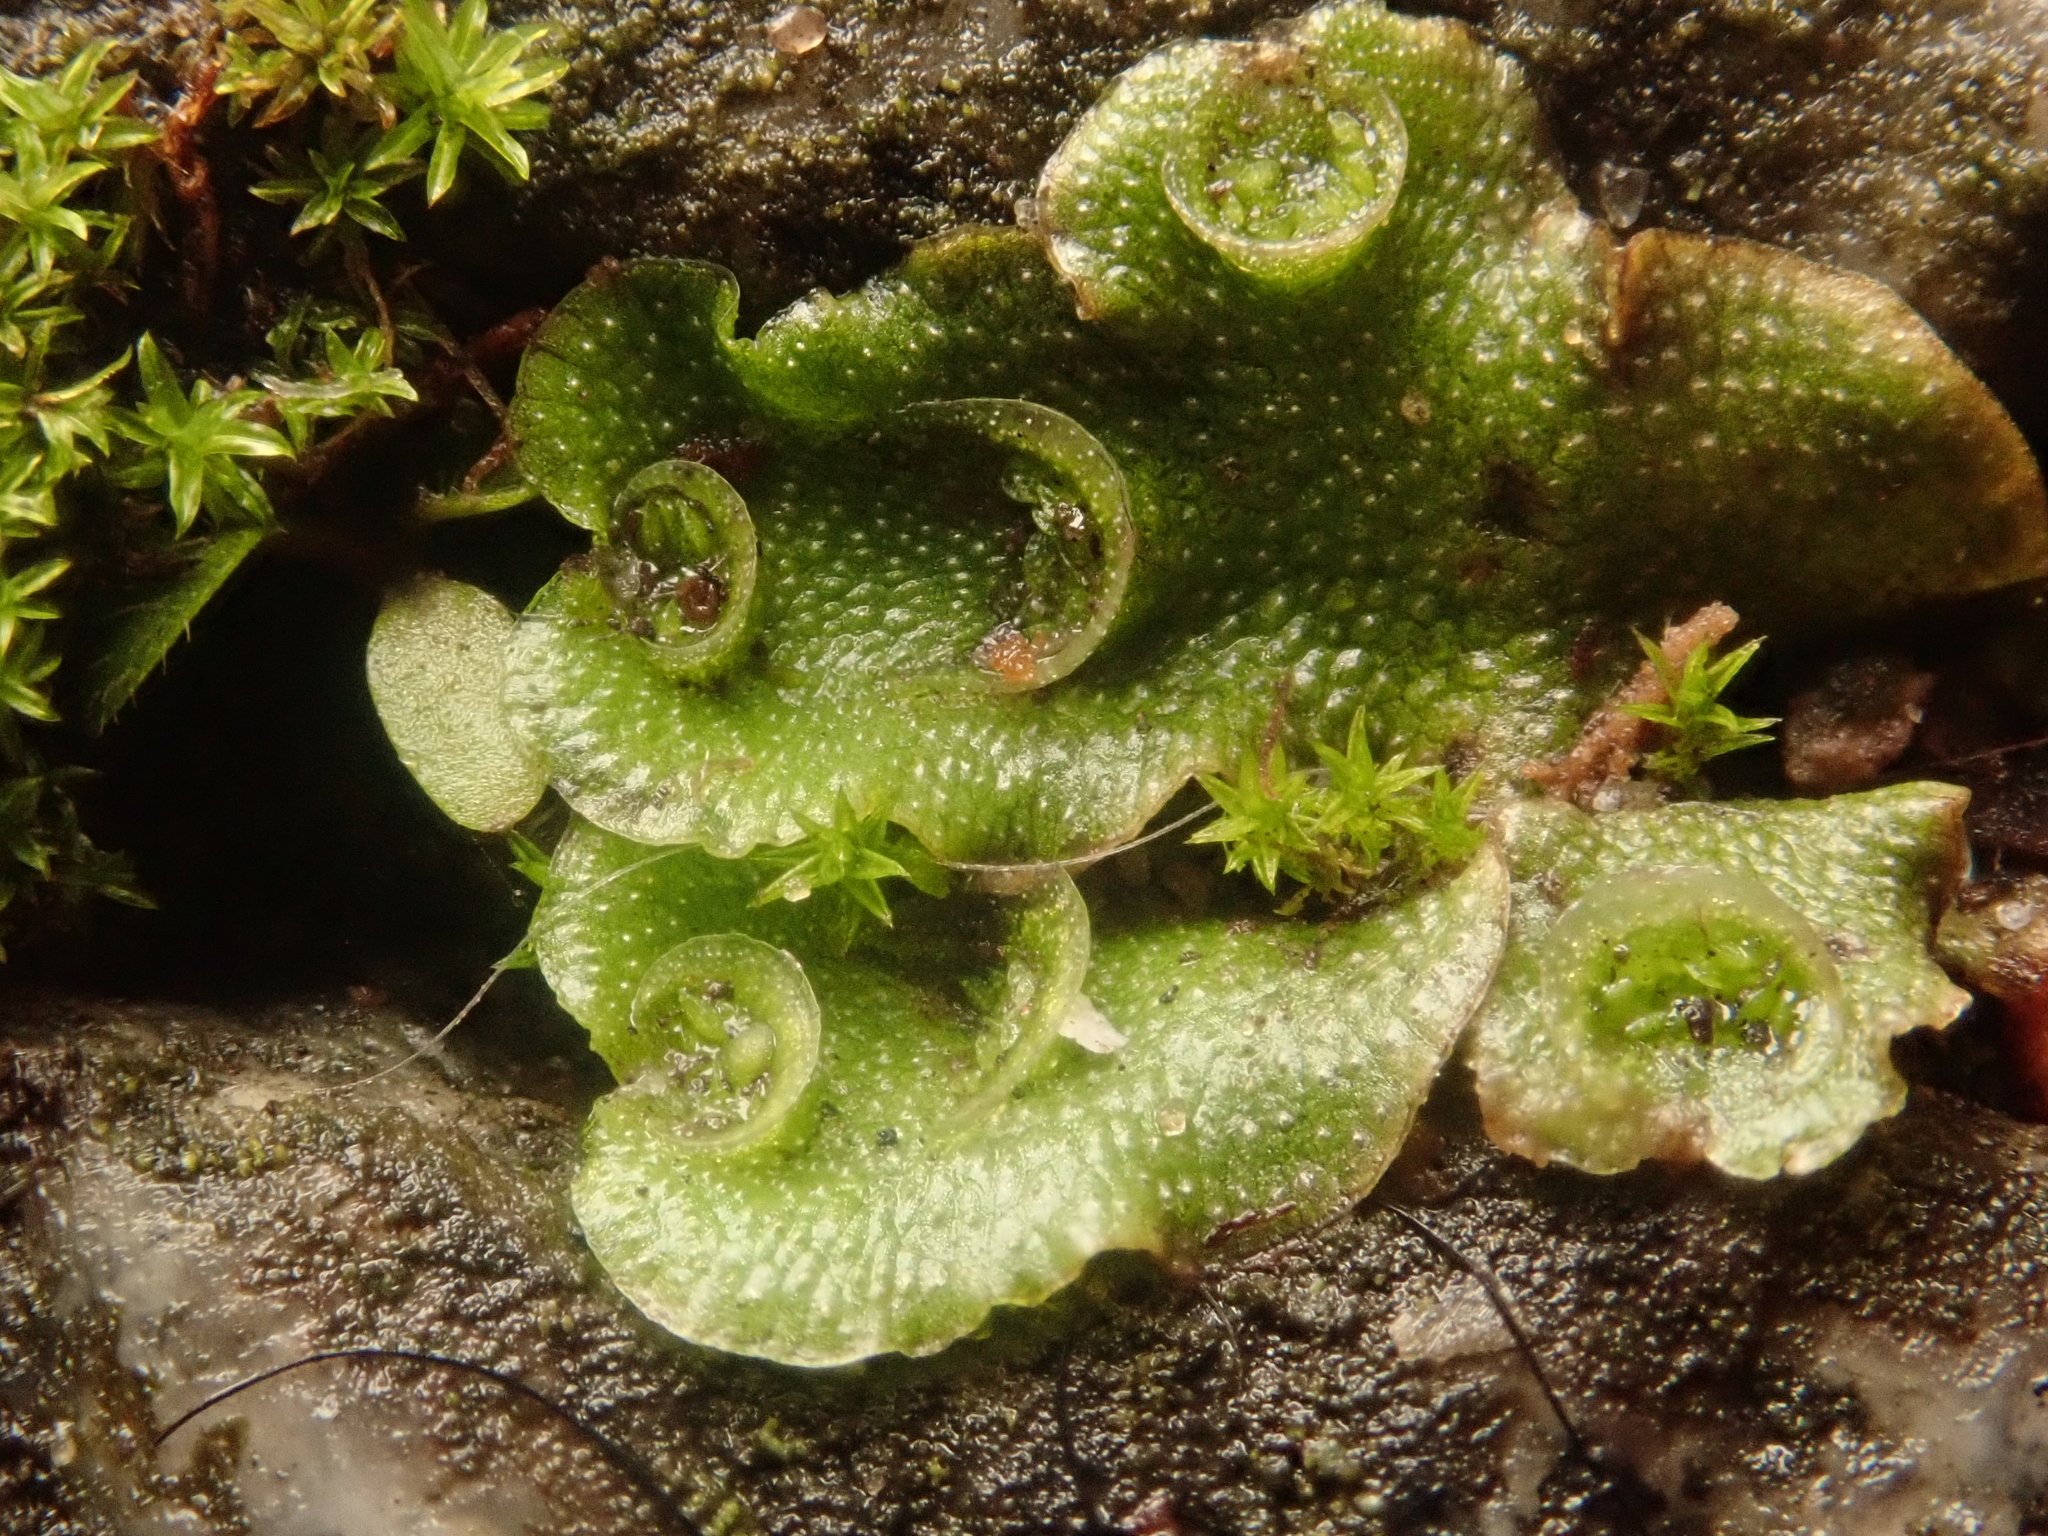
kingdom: Plantae
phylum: Marchantiophyta
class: Marchantiopsida
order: Lunulariales
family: Lunulariaceae
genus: Lunularia
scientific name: Lunularia cruciata
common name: Crescent-cup liverwort
